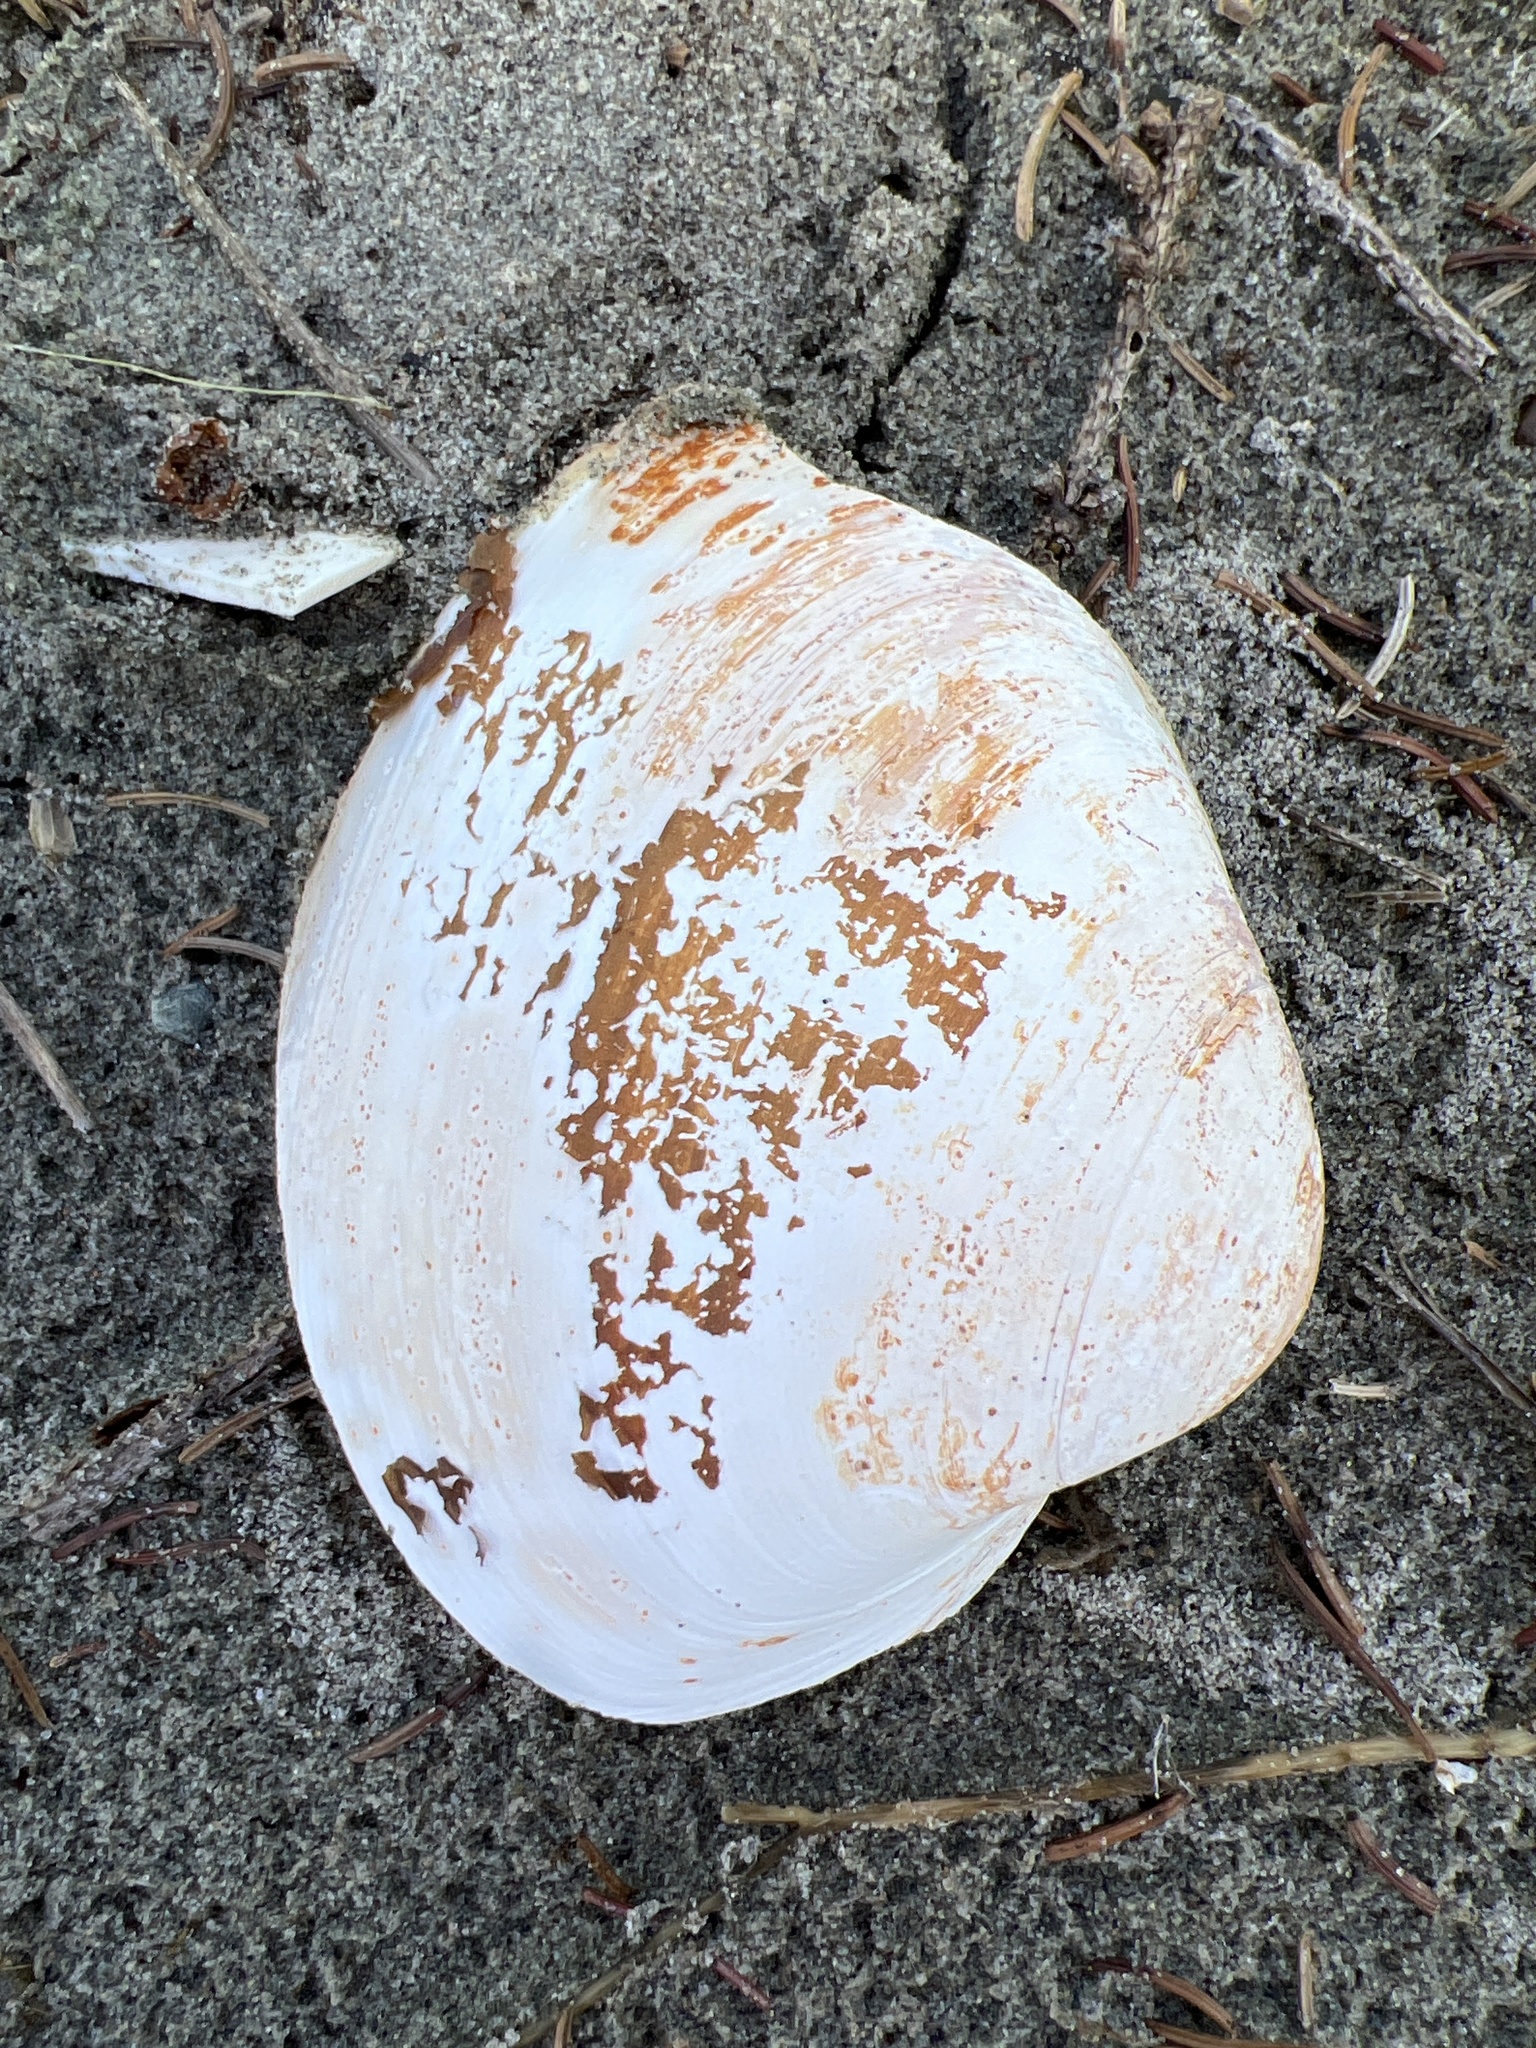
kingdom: Animalia
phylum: Mollusca
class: Bivalvia
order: Venerida
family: Mactridae
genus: Spisula
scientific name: Spisula solidissima
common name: Atlantic surf clam
